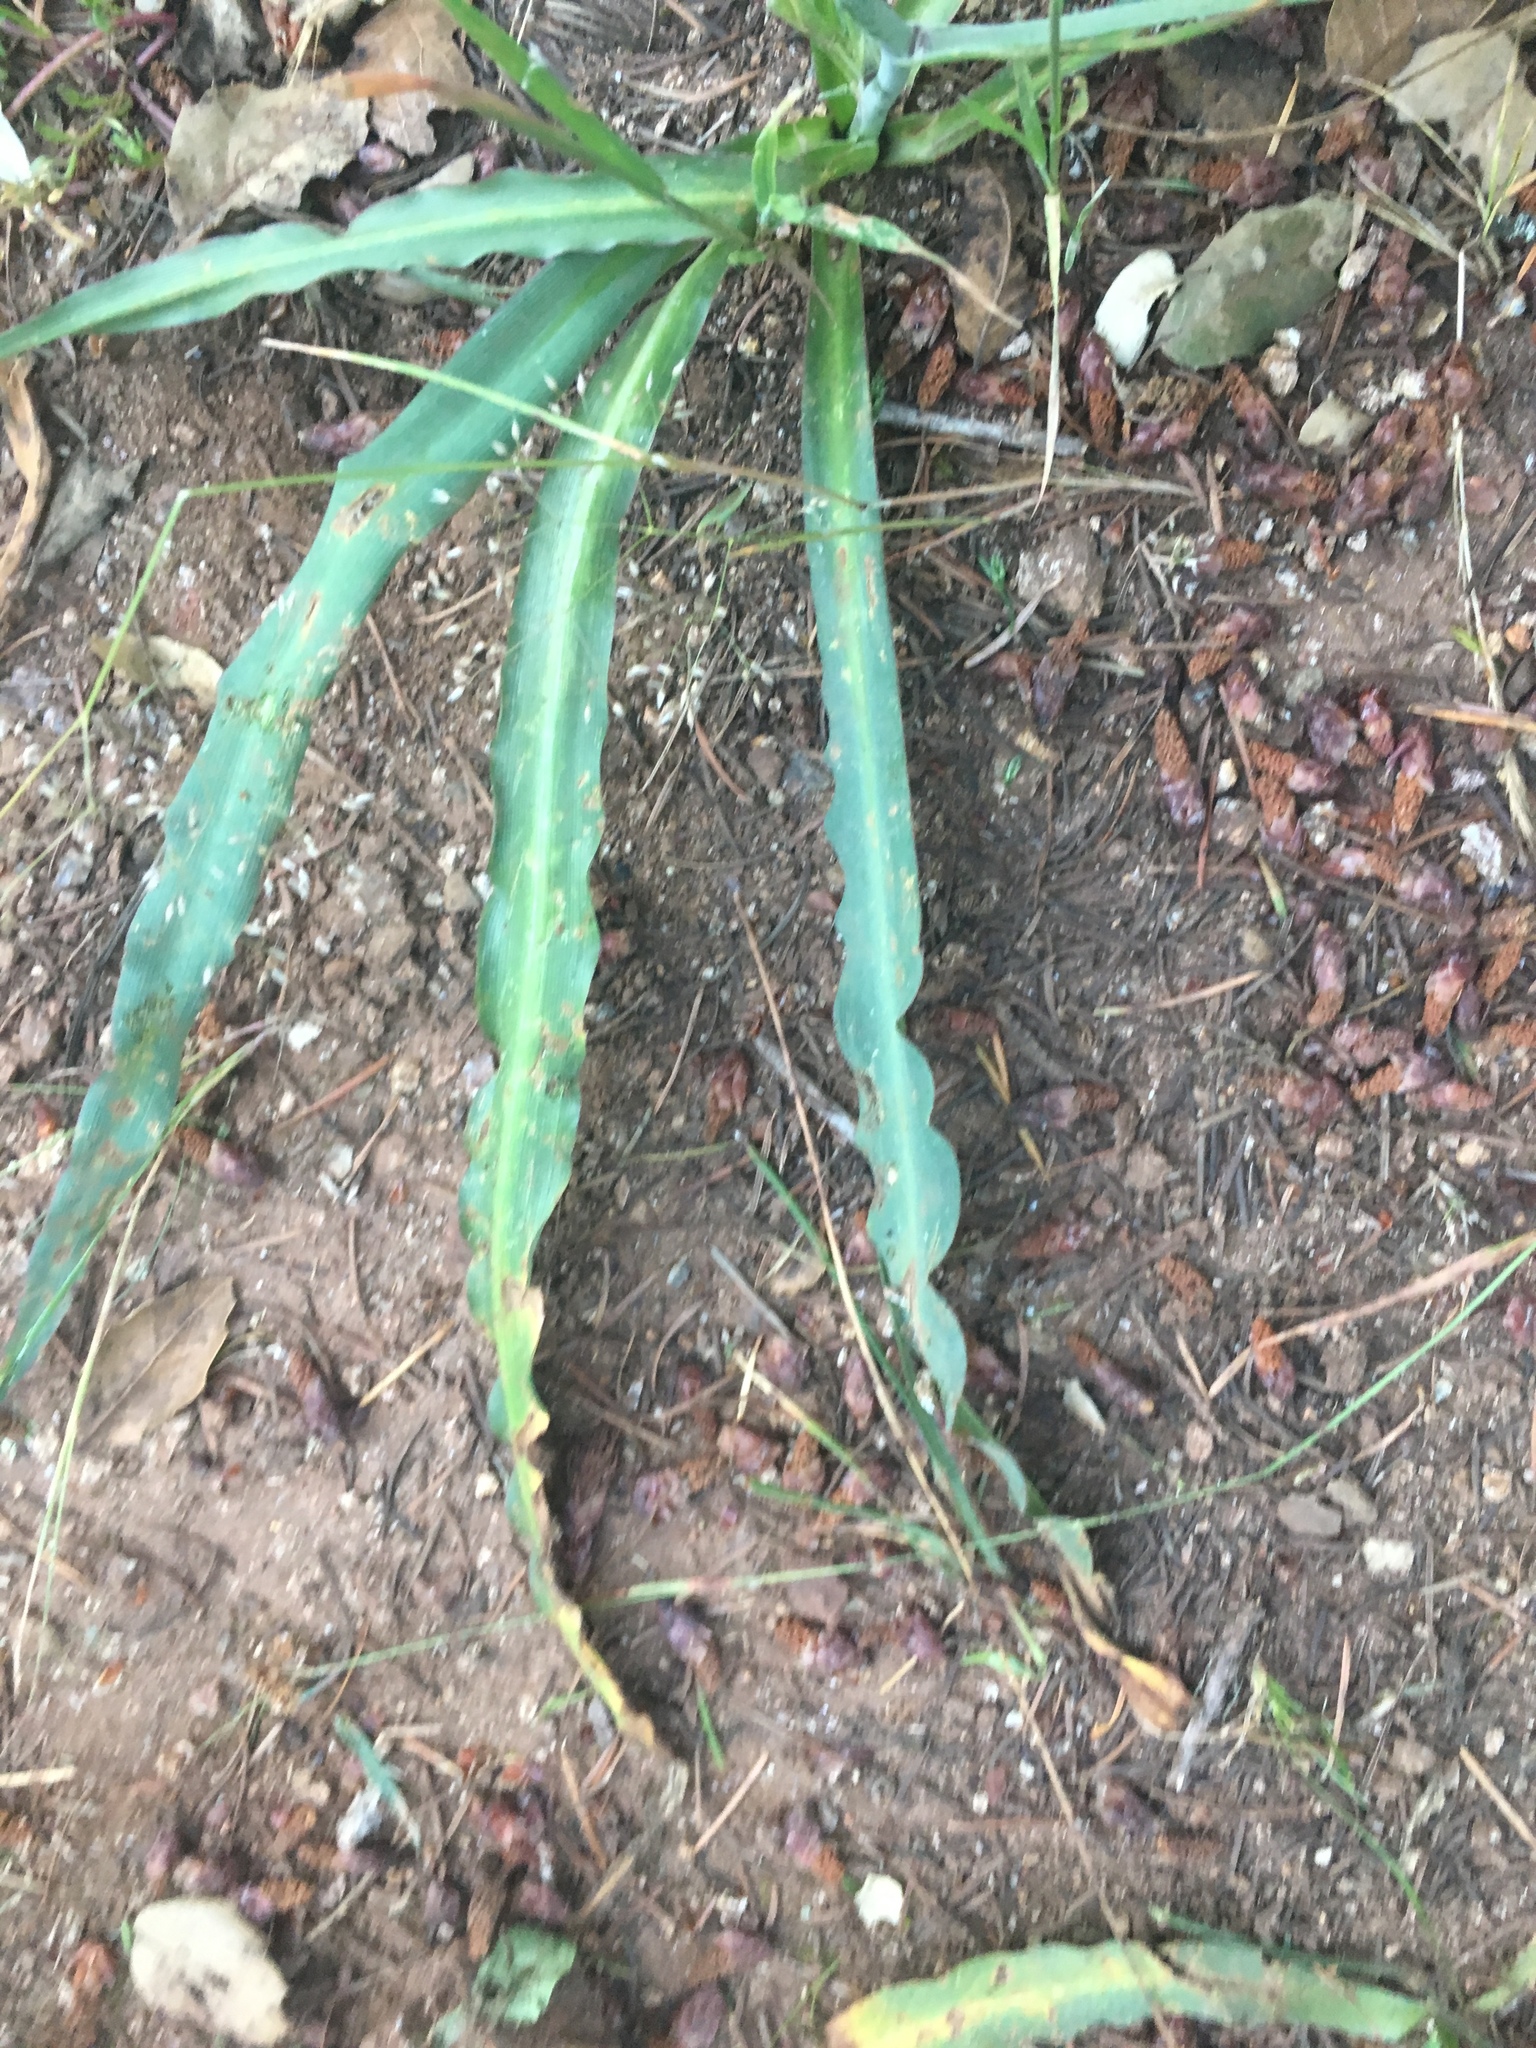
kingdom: Plantae
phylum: Tracheophyta
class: Liliopsida
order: Asparagales
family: Asparagaceae
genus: Chlorogalum
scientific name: Chlorogalum pomeridianum
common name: Amole
